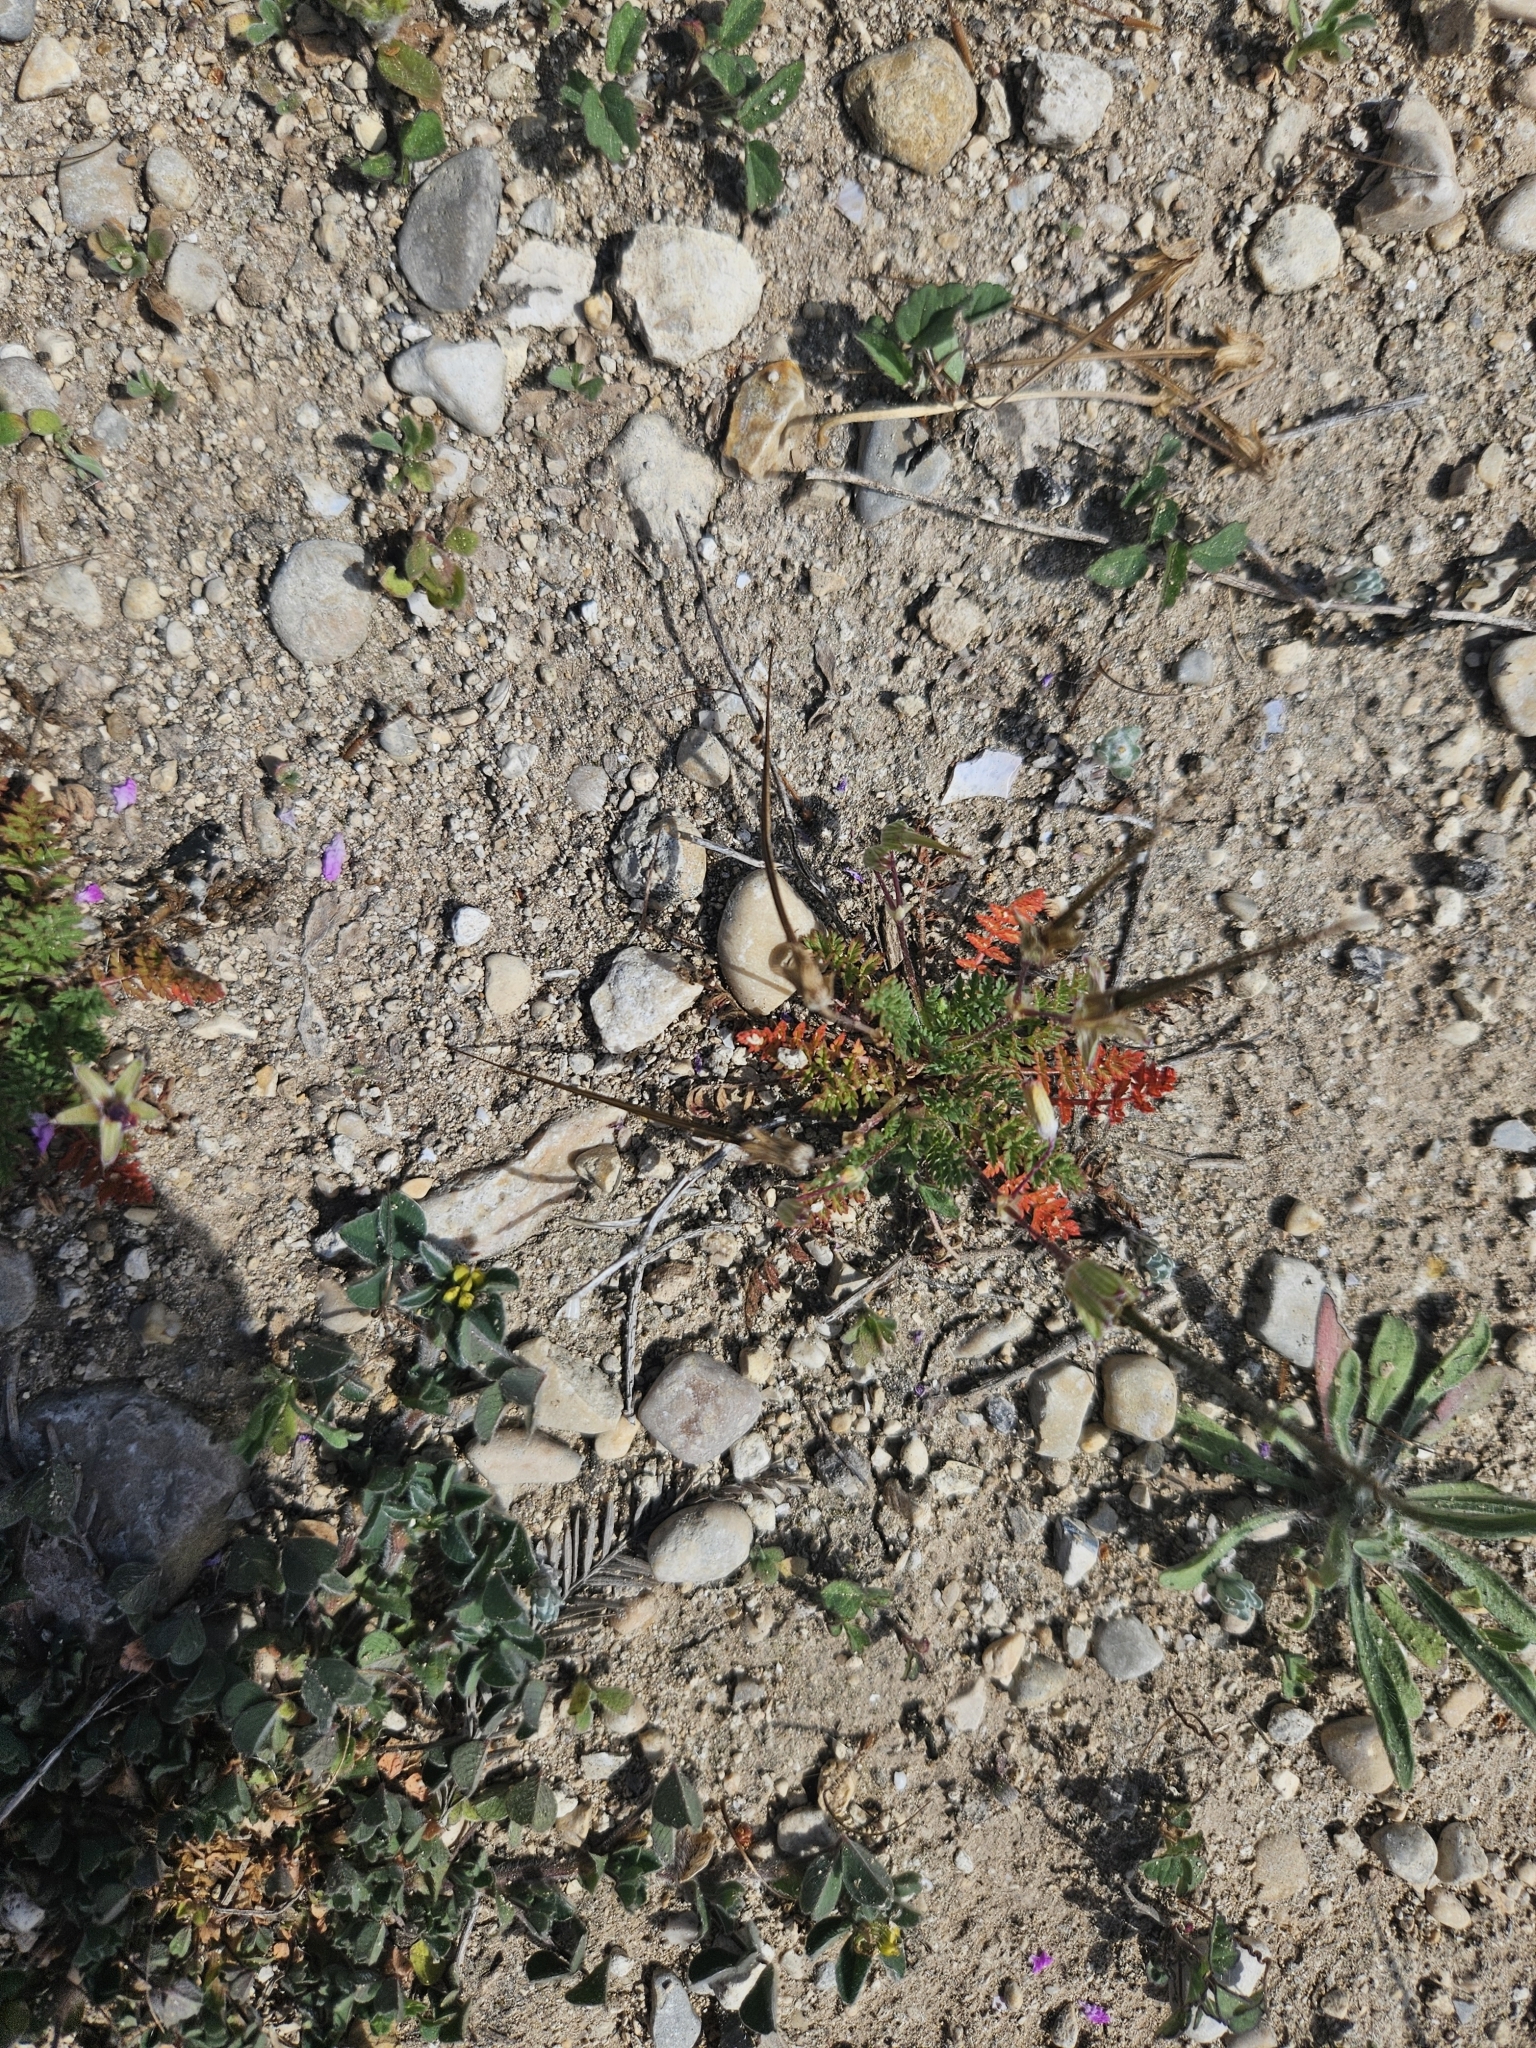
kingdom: Plantae
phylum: Tracheophyta
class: Magnoliopsida
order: Geraniales
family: Geraniaceae
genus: Erodium
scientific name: Erodium cicutarium
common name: Common stork's-bill
